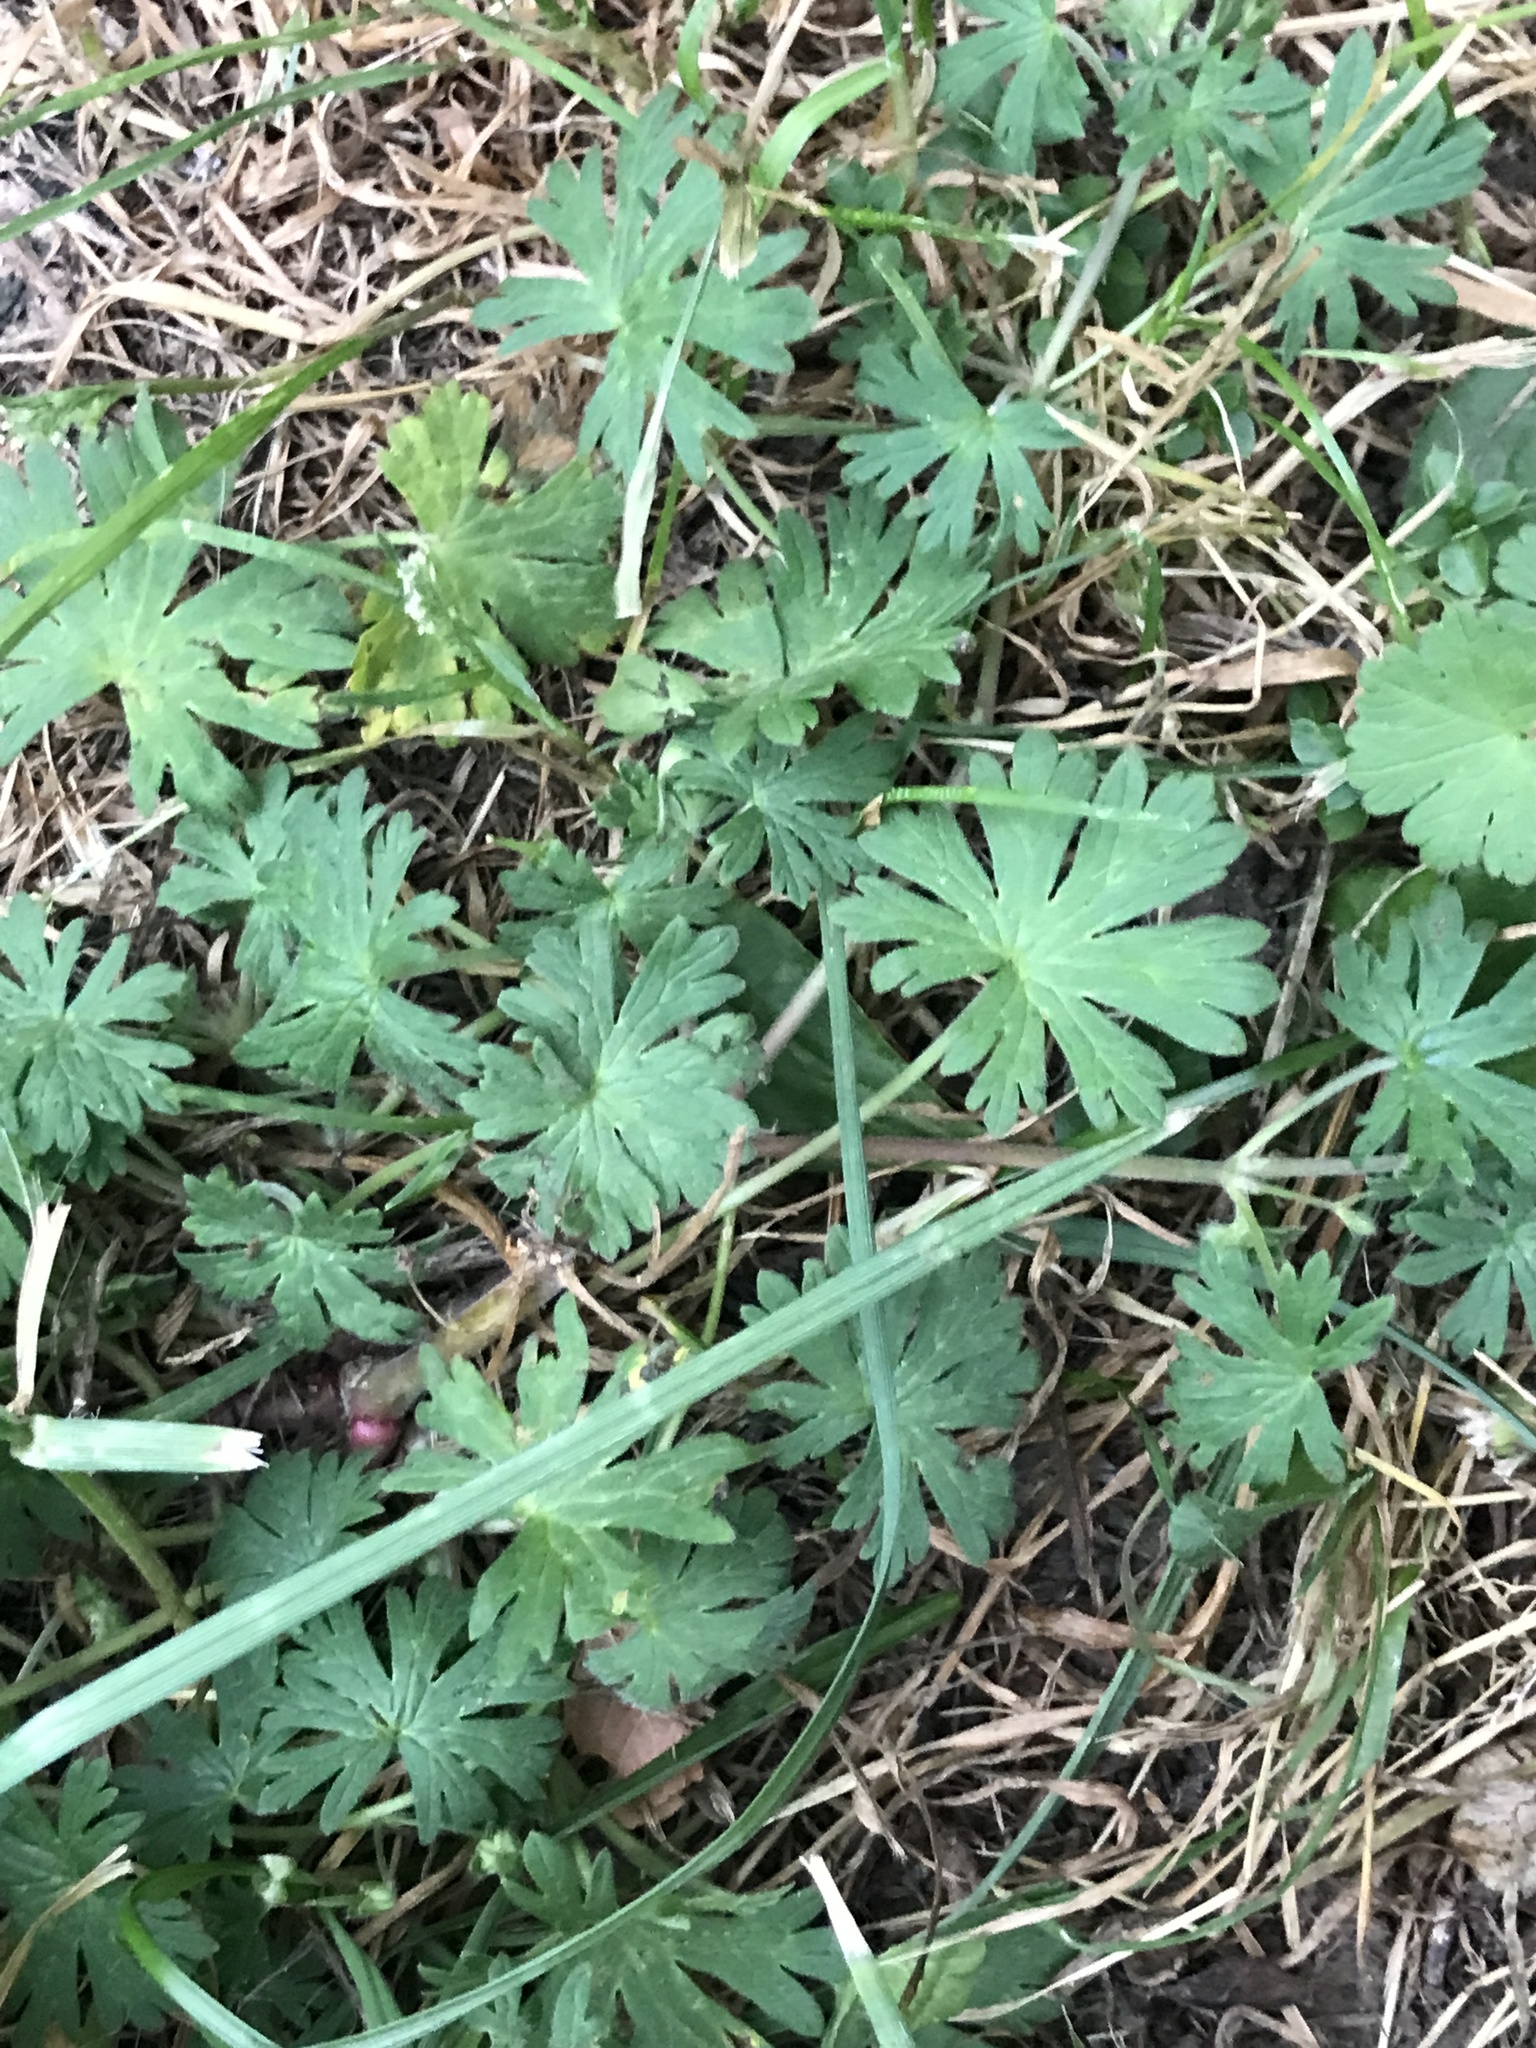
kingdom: Plantae
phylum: Tracheophyta
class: Magnoliopsida
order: Geraniales
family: Geraniaceae
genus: Geranium
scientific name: Geranium pusillum
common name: Small geranium
